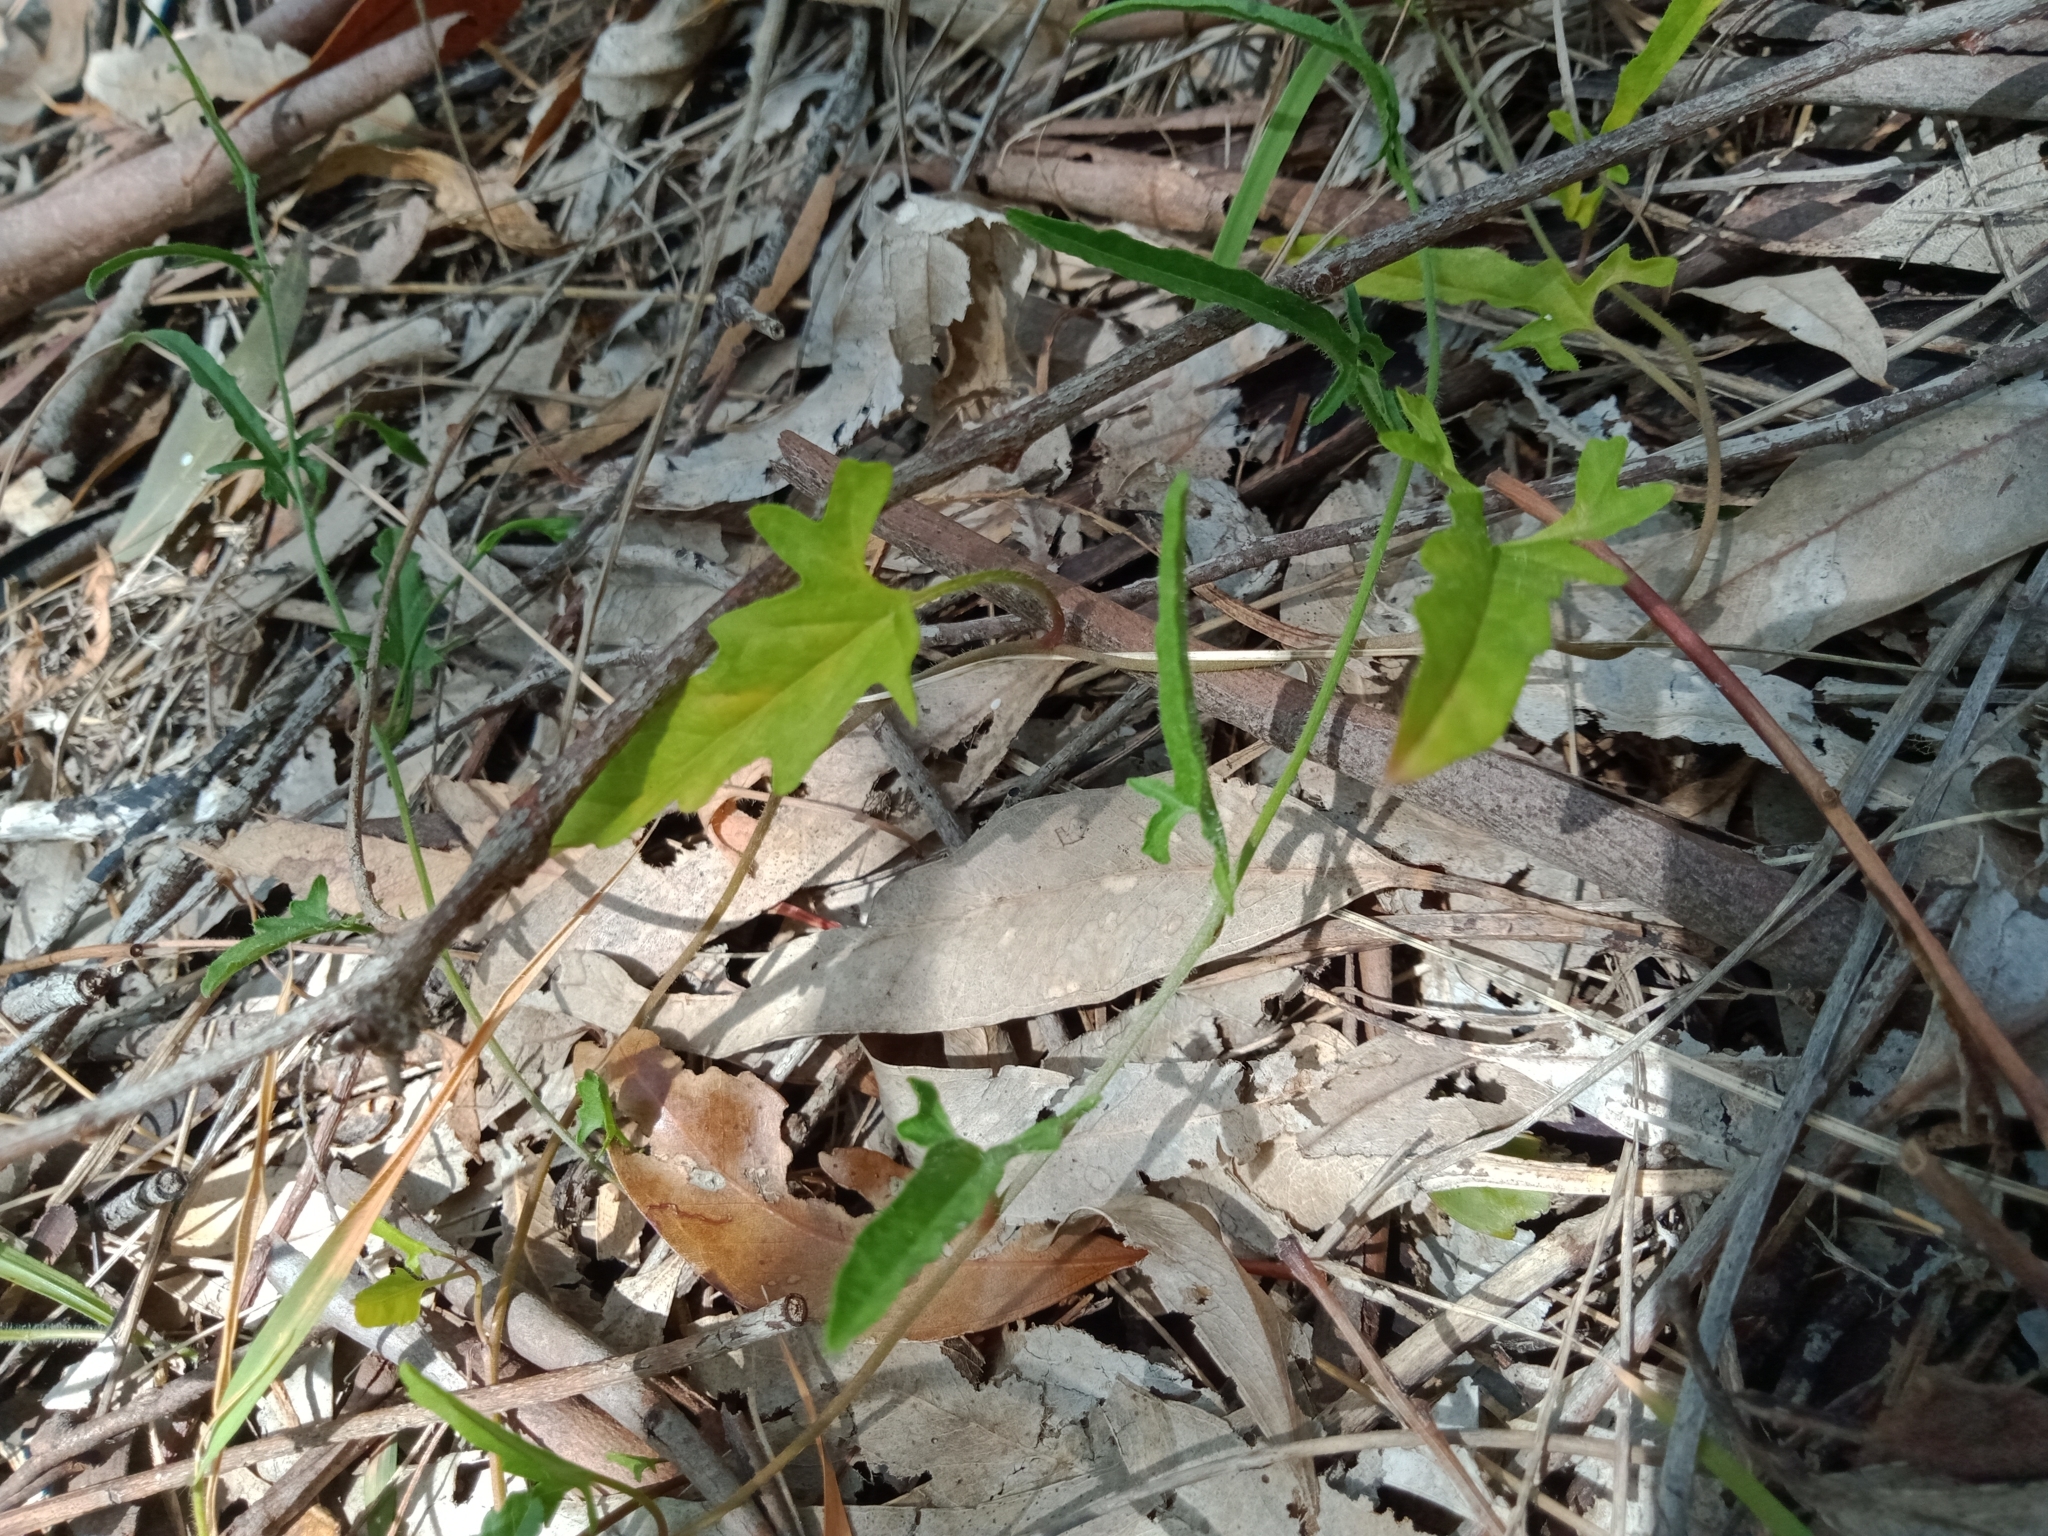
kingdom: Plantae
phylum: Tracheophyta
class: Magnoliopsida
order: Solanales
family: Convolvulaceae
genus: Convolvulus
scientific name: Convolvulus angustissimus
